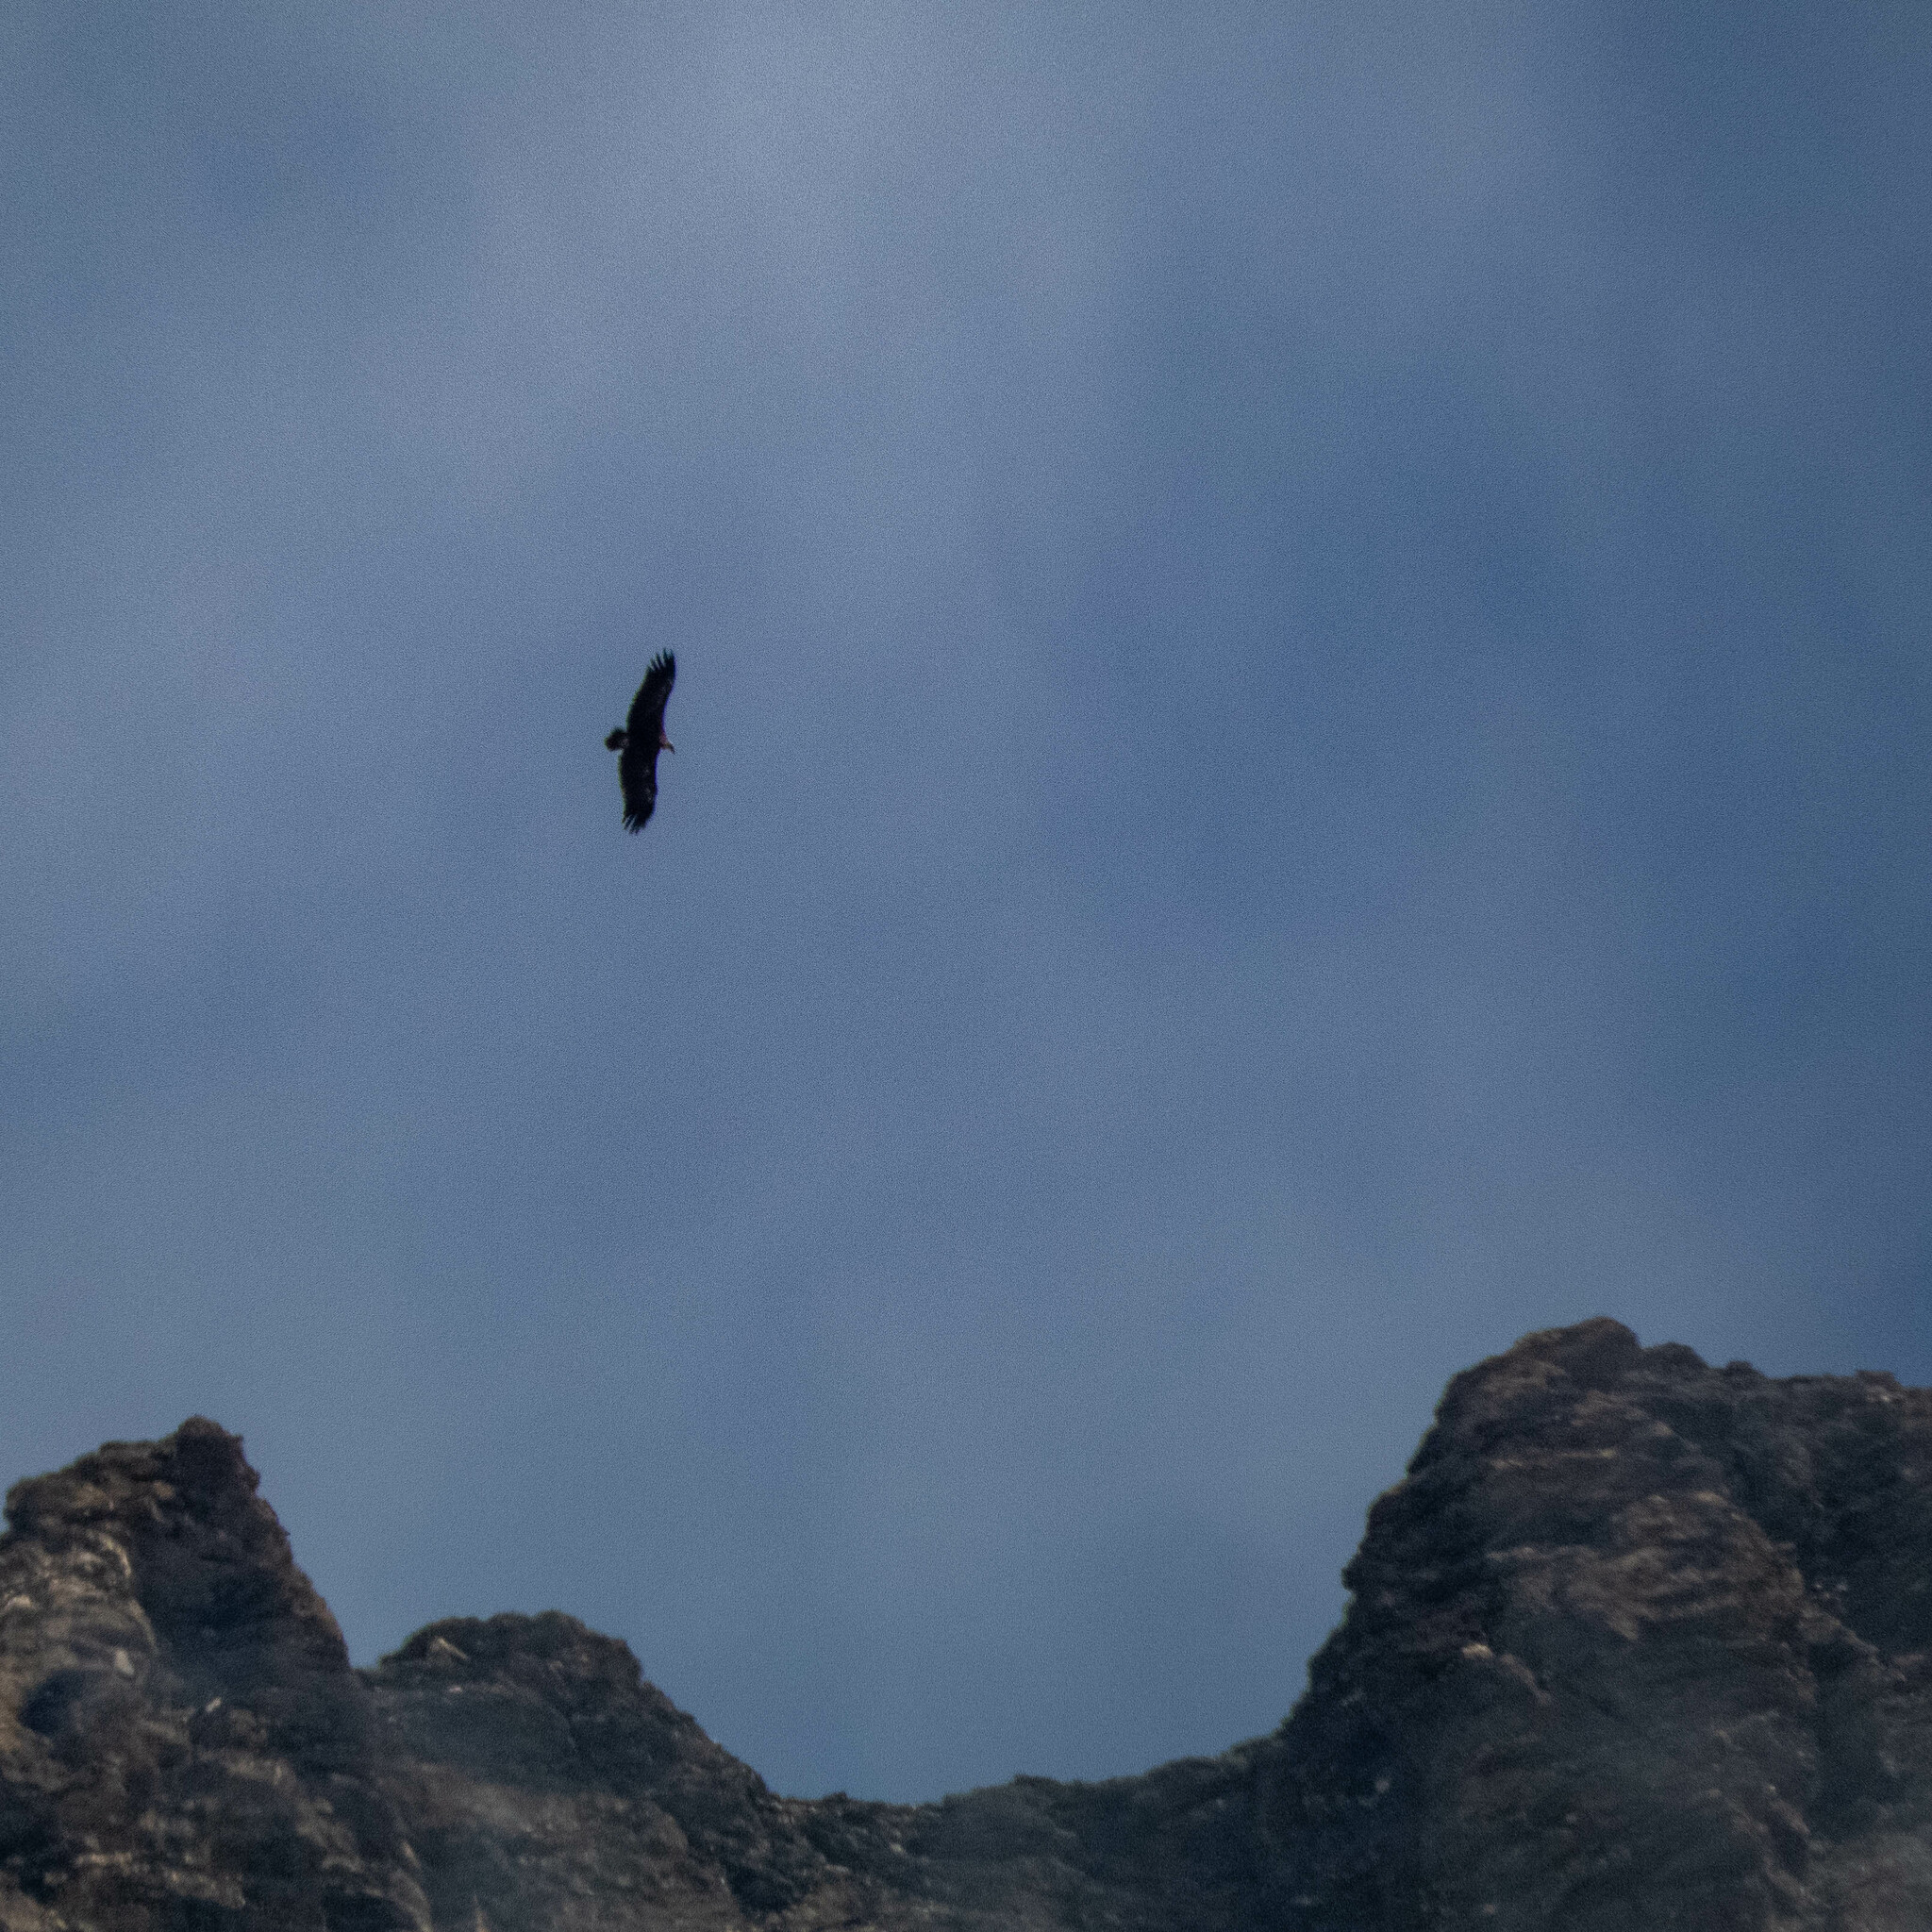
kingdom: Animalia
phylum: Chordata
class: Aves
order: Accipitriformes
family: Accipitridae
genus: Gyps
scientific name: Gyps fulvus
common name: Griffon vulture
